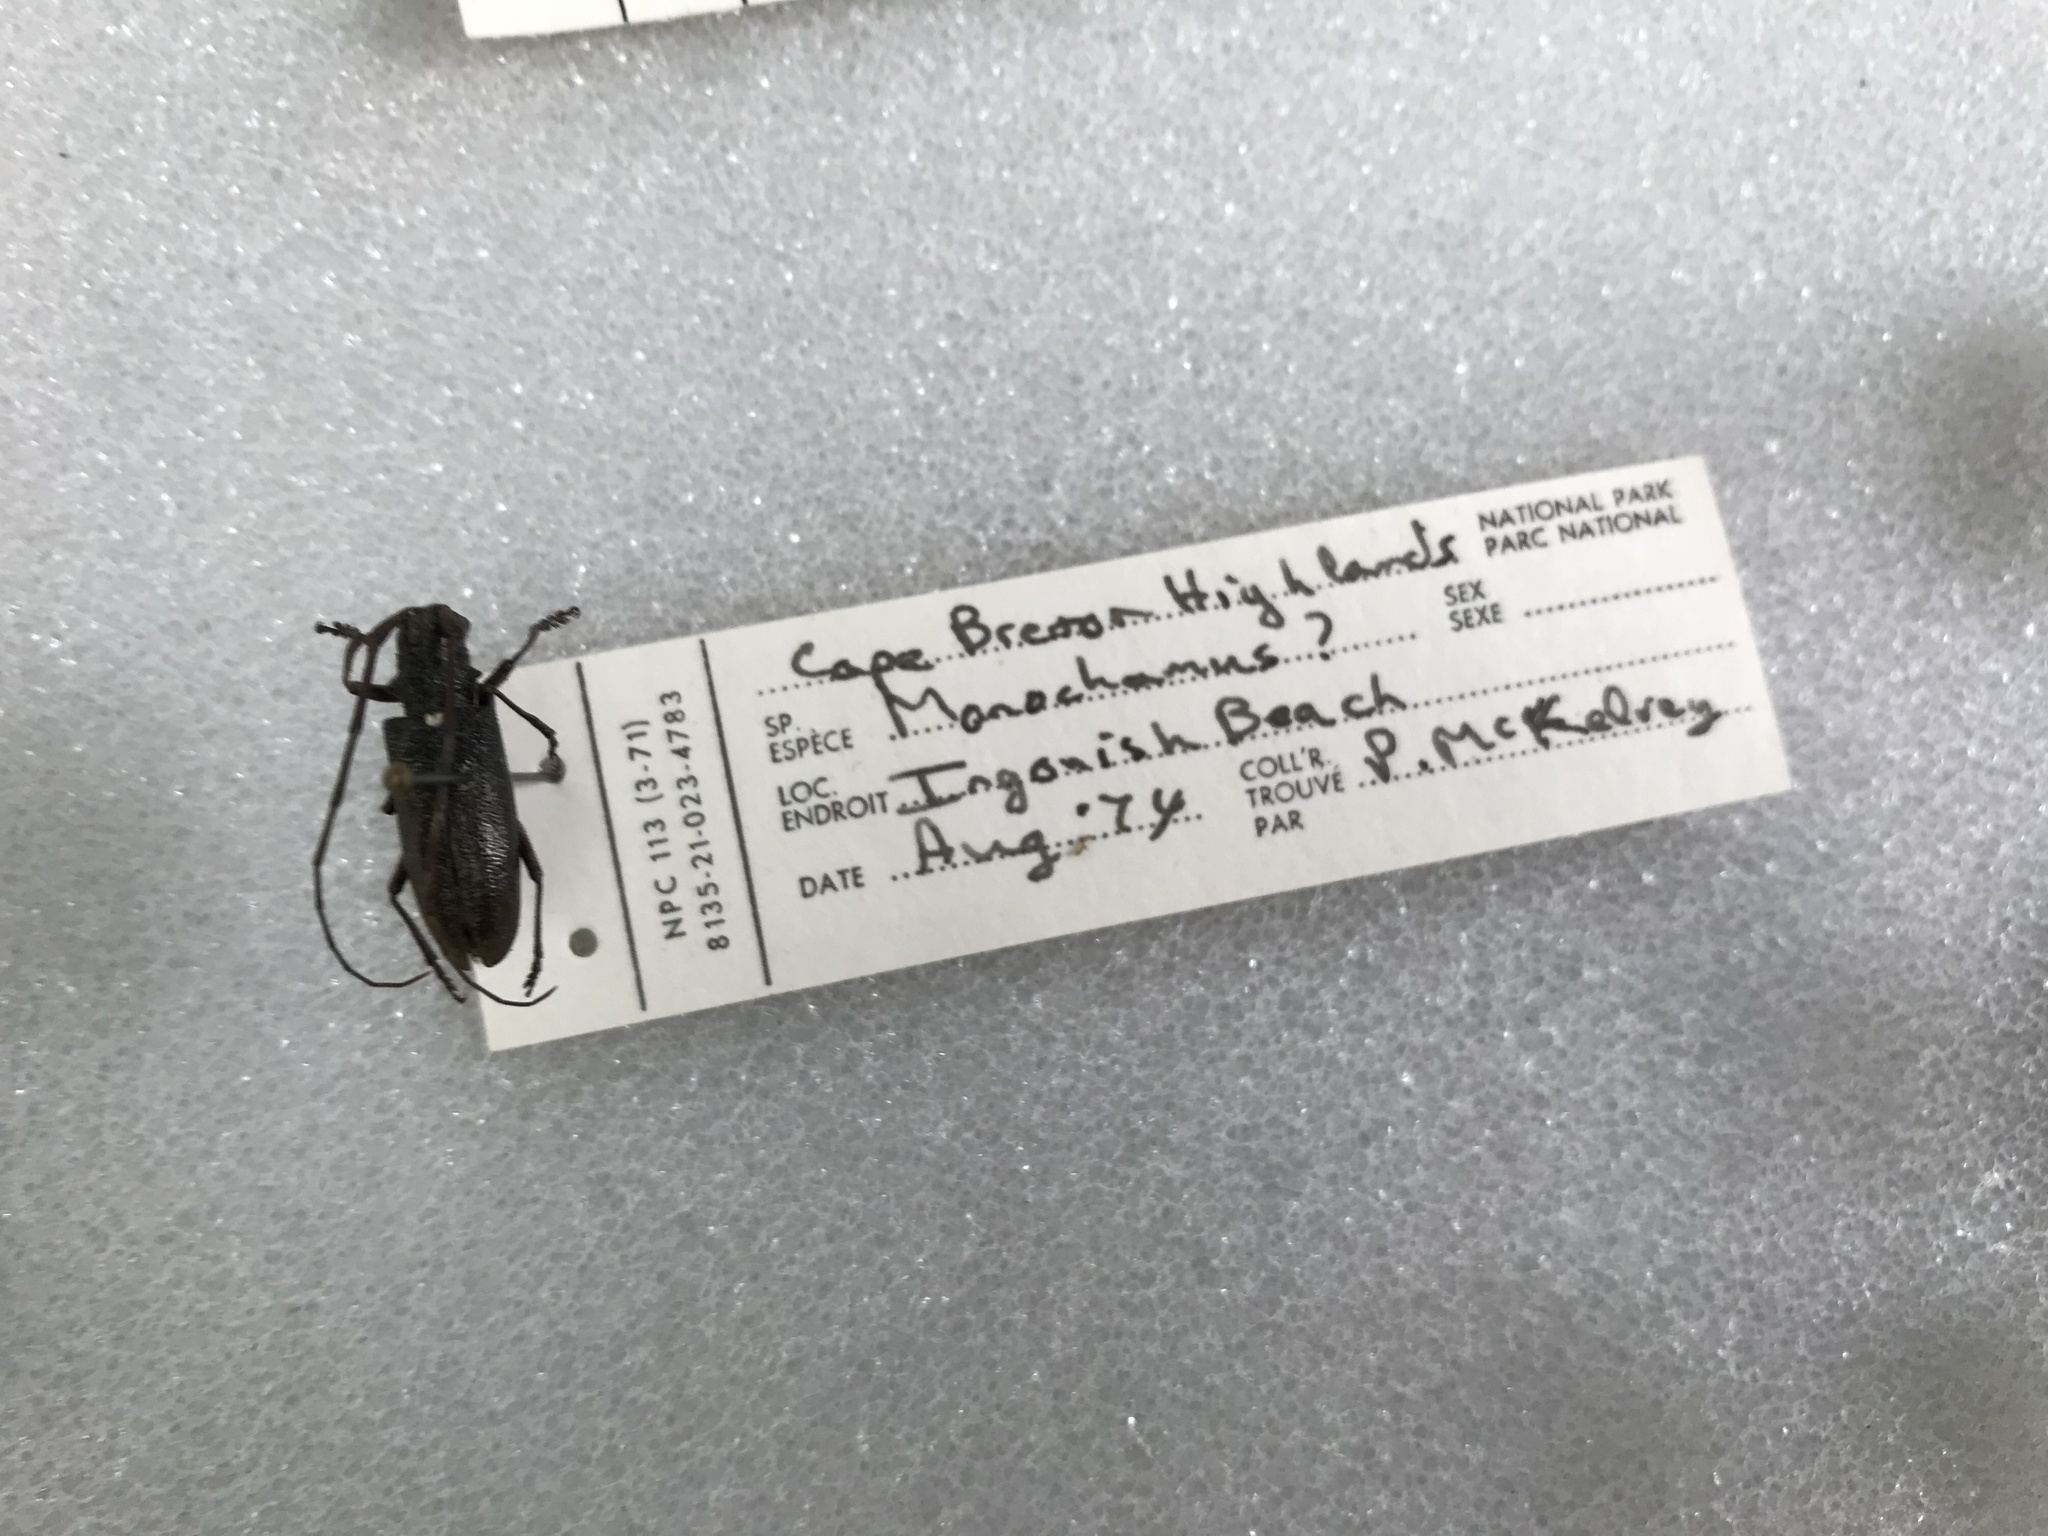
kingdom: Animalia
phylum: Arthropoda
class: Insecta
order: Coleoptera
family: Cerambycidae
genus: Monochamus
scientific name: Monochamus scutellatus
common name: White-spotted sawyer beetle
